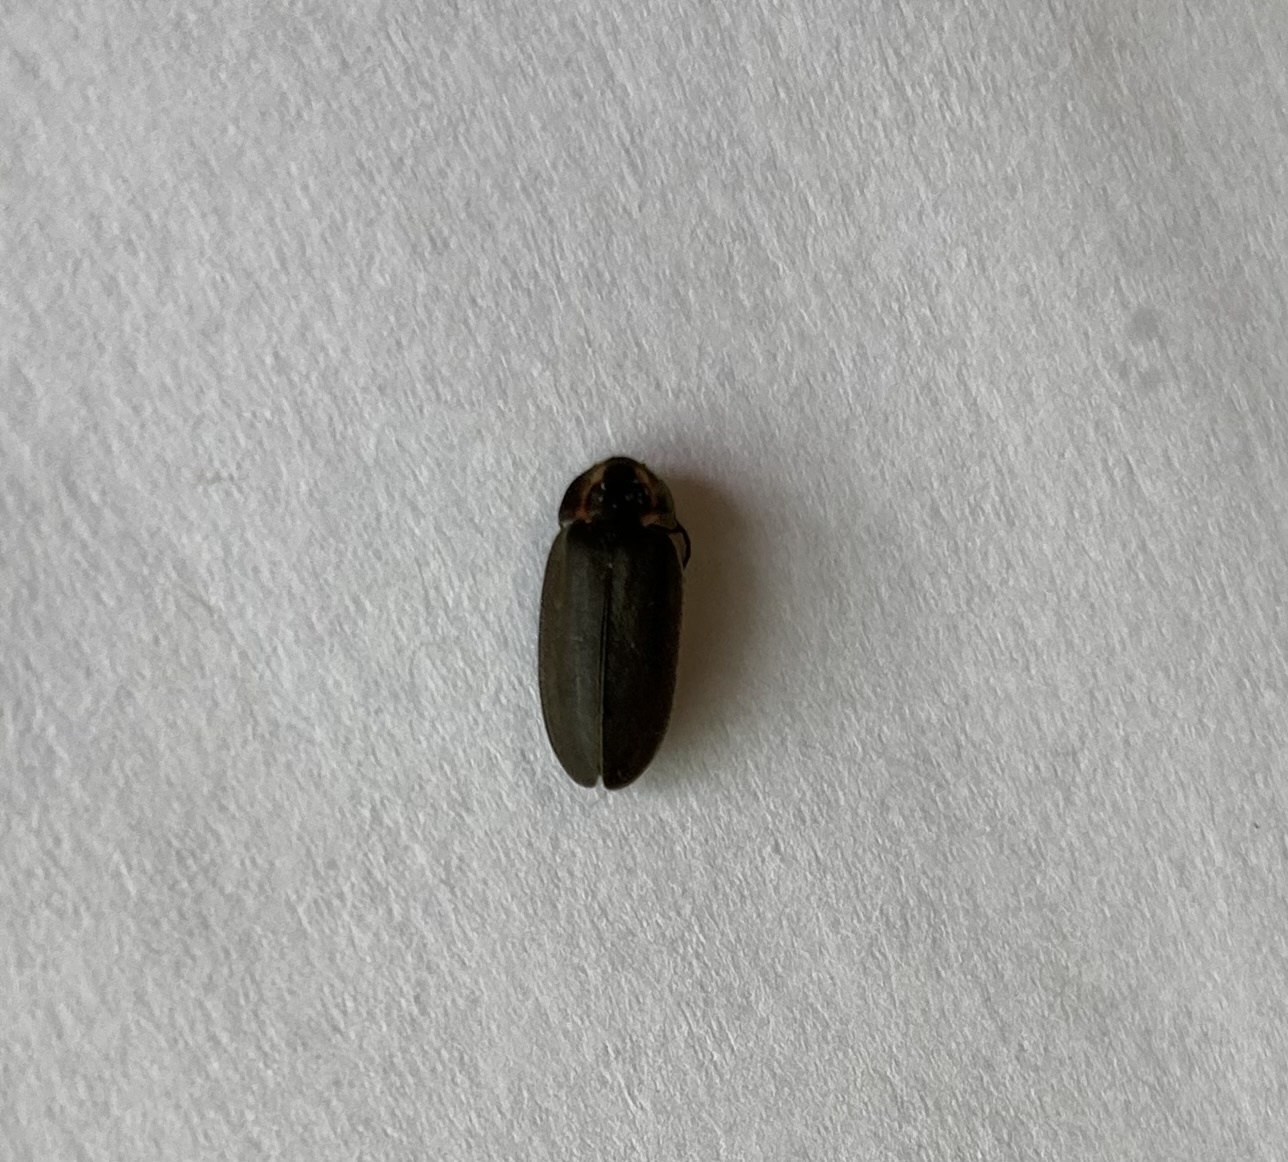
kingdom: Animalia
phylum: Arthropoda
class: Insecta
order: Coleoptera
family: Lampyridae
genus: Photinus
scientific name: Photinus corrusca
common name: Winter firefly
